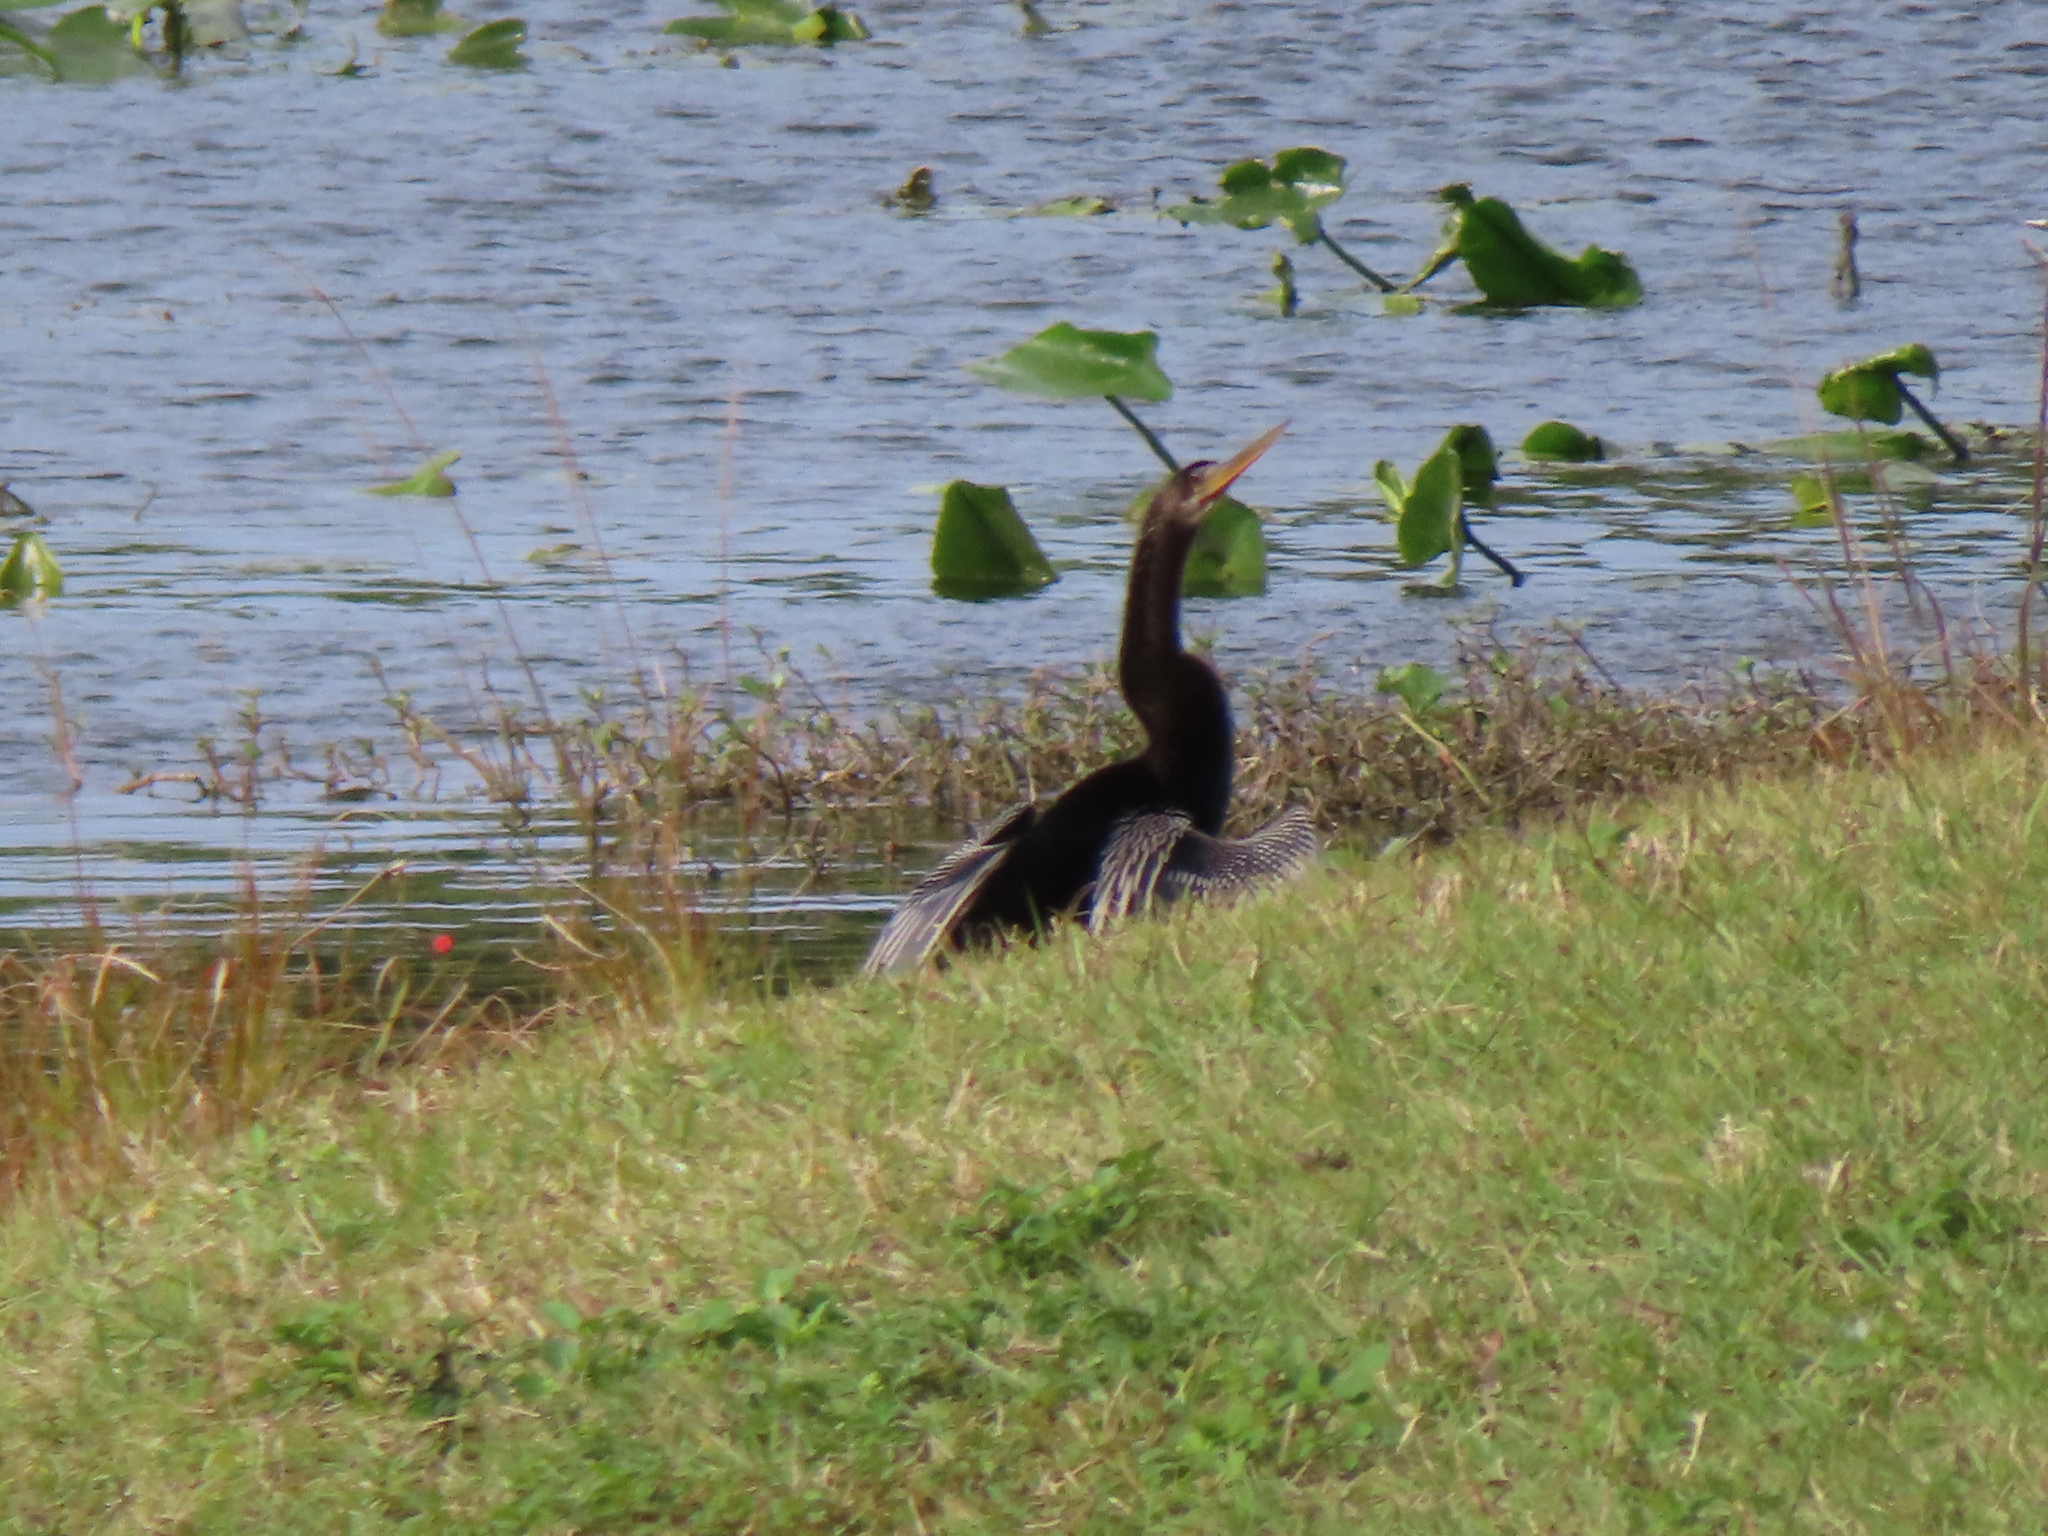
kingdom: Animalia
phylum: Chordata
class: Aves
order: Suliformes
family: Anhingidae
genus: Anhinga
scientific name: Anhinga anhinga
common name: Anhinga
